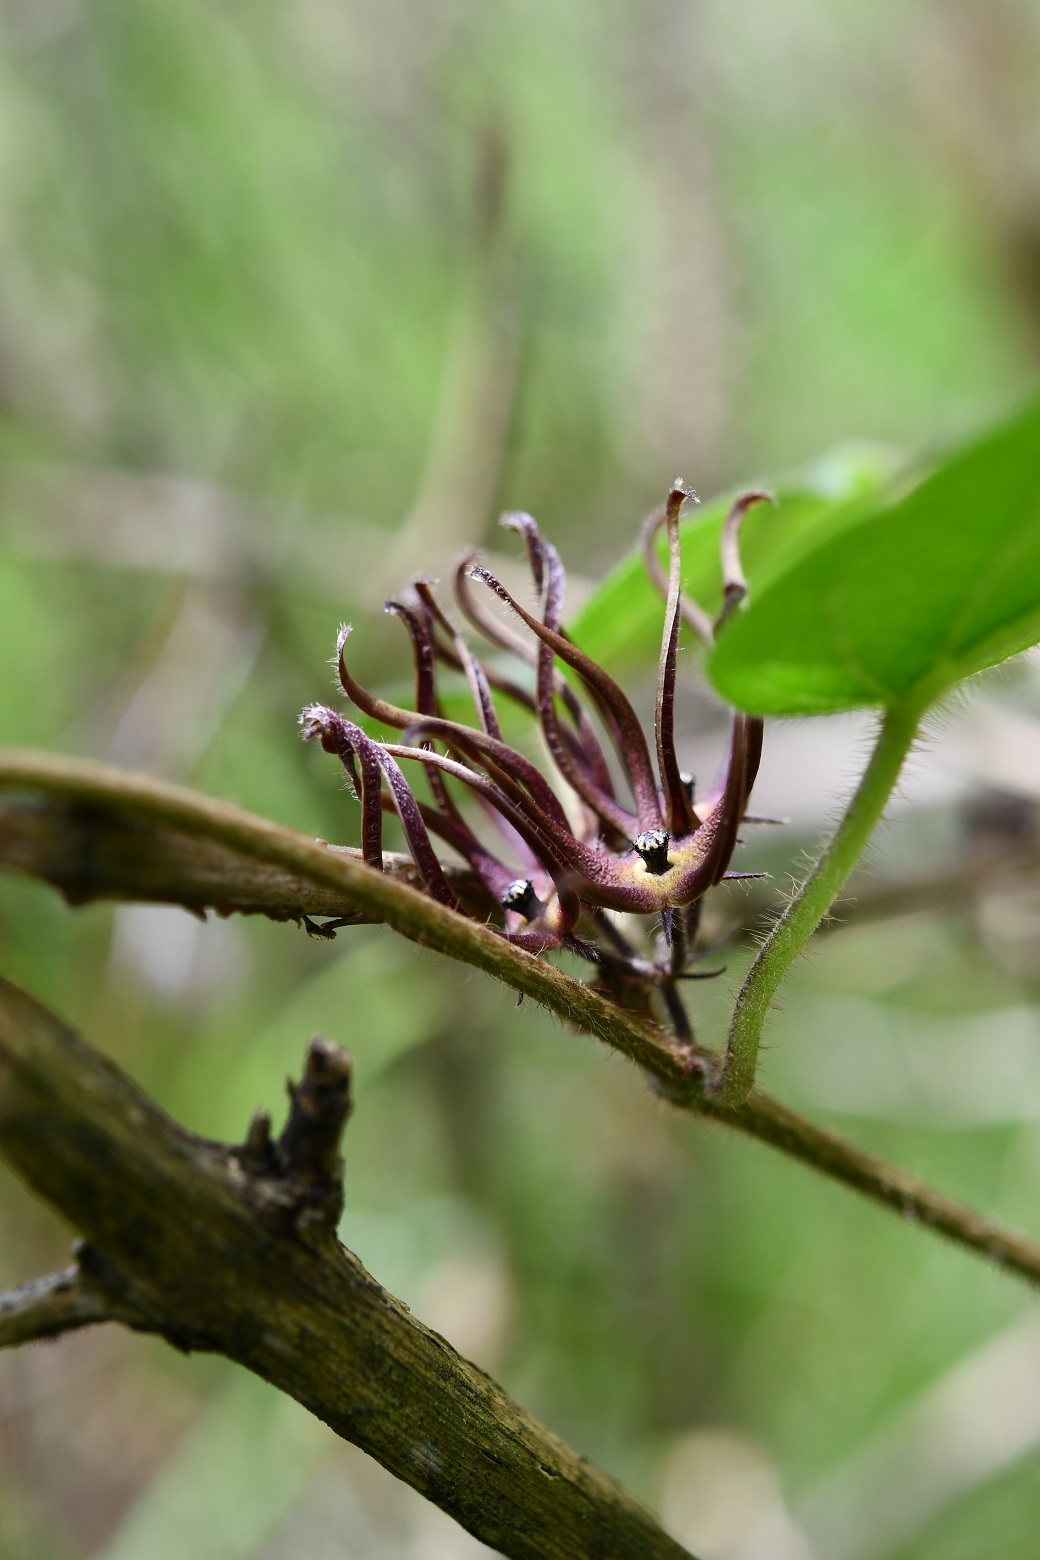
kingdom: Plantae
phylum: Tracheophyta
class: Magnoliopsida
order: Gentianales
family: Apocynaceae
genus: Matelea
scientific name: Matelea medusae
